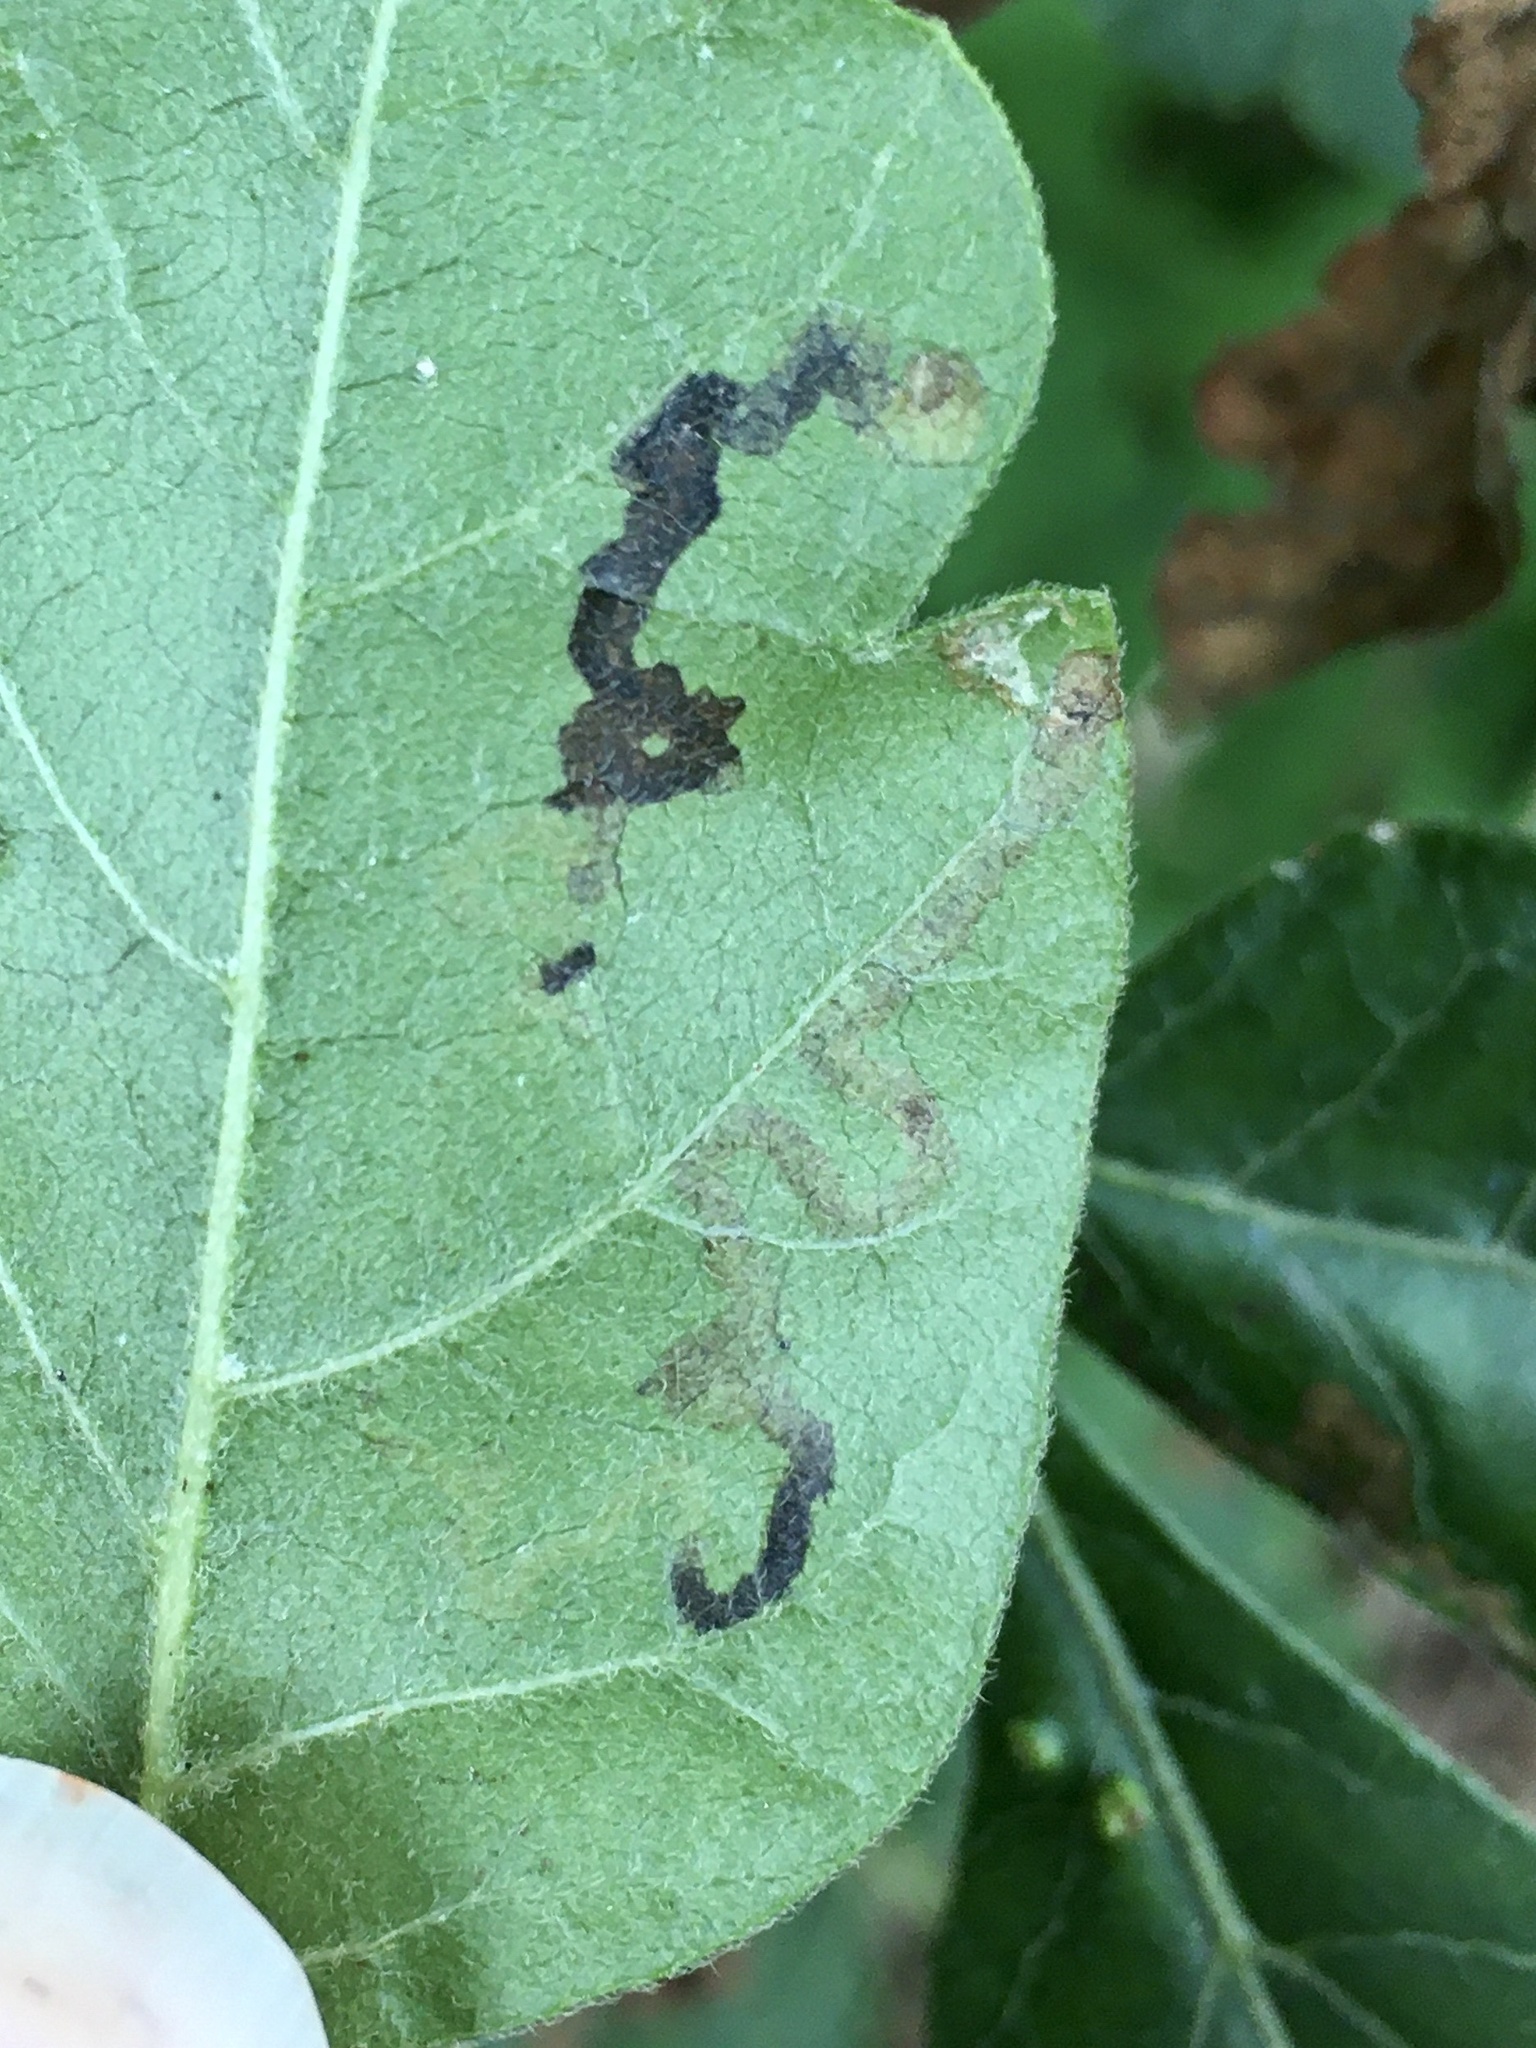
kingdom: Animalia
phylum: Arthropoda
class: Insecta
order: Lepidoptera
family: Nepticulidae
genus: Stigmella
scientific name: Stigmella intermedia
